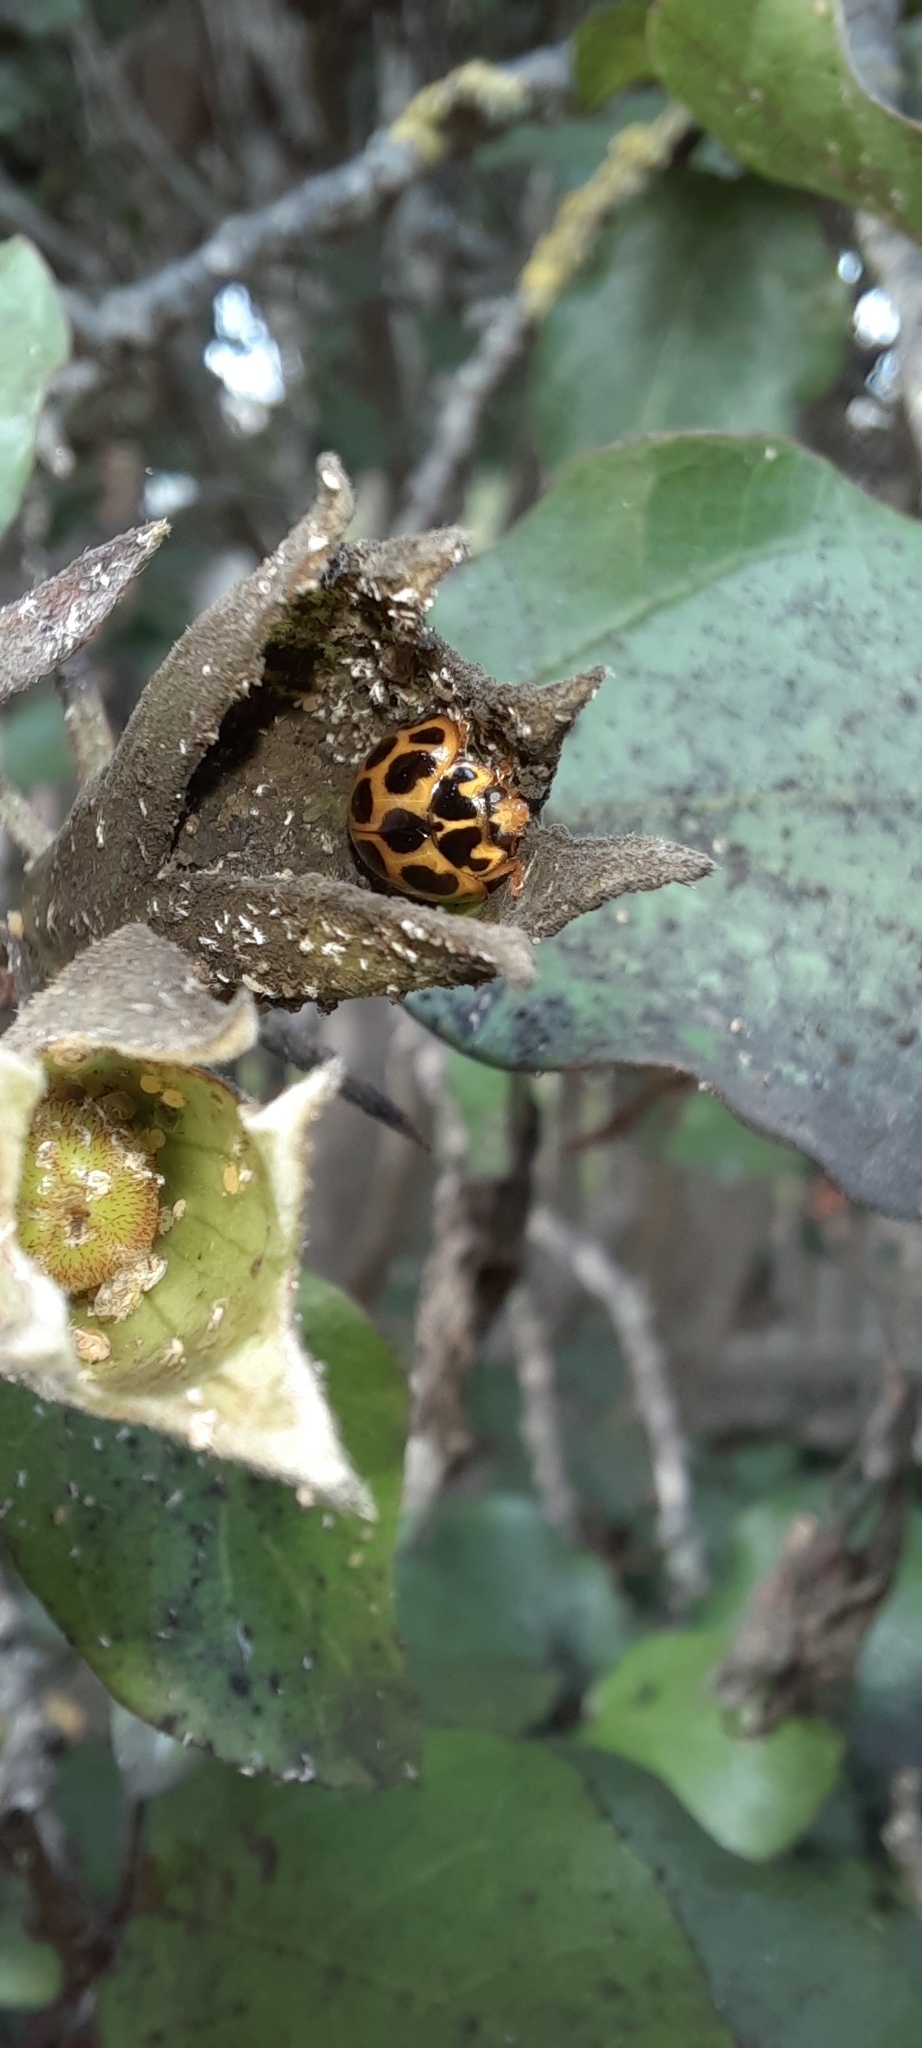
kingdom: Animalia
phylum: Arthropoda
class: Insecta
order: Coleoptera
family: Coccinellidae
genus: Harmonia
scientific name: Harmonia conformis
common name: Common spotted ladybird beetle
